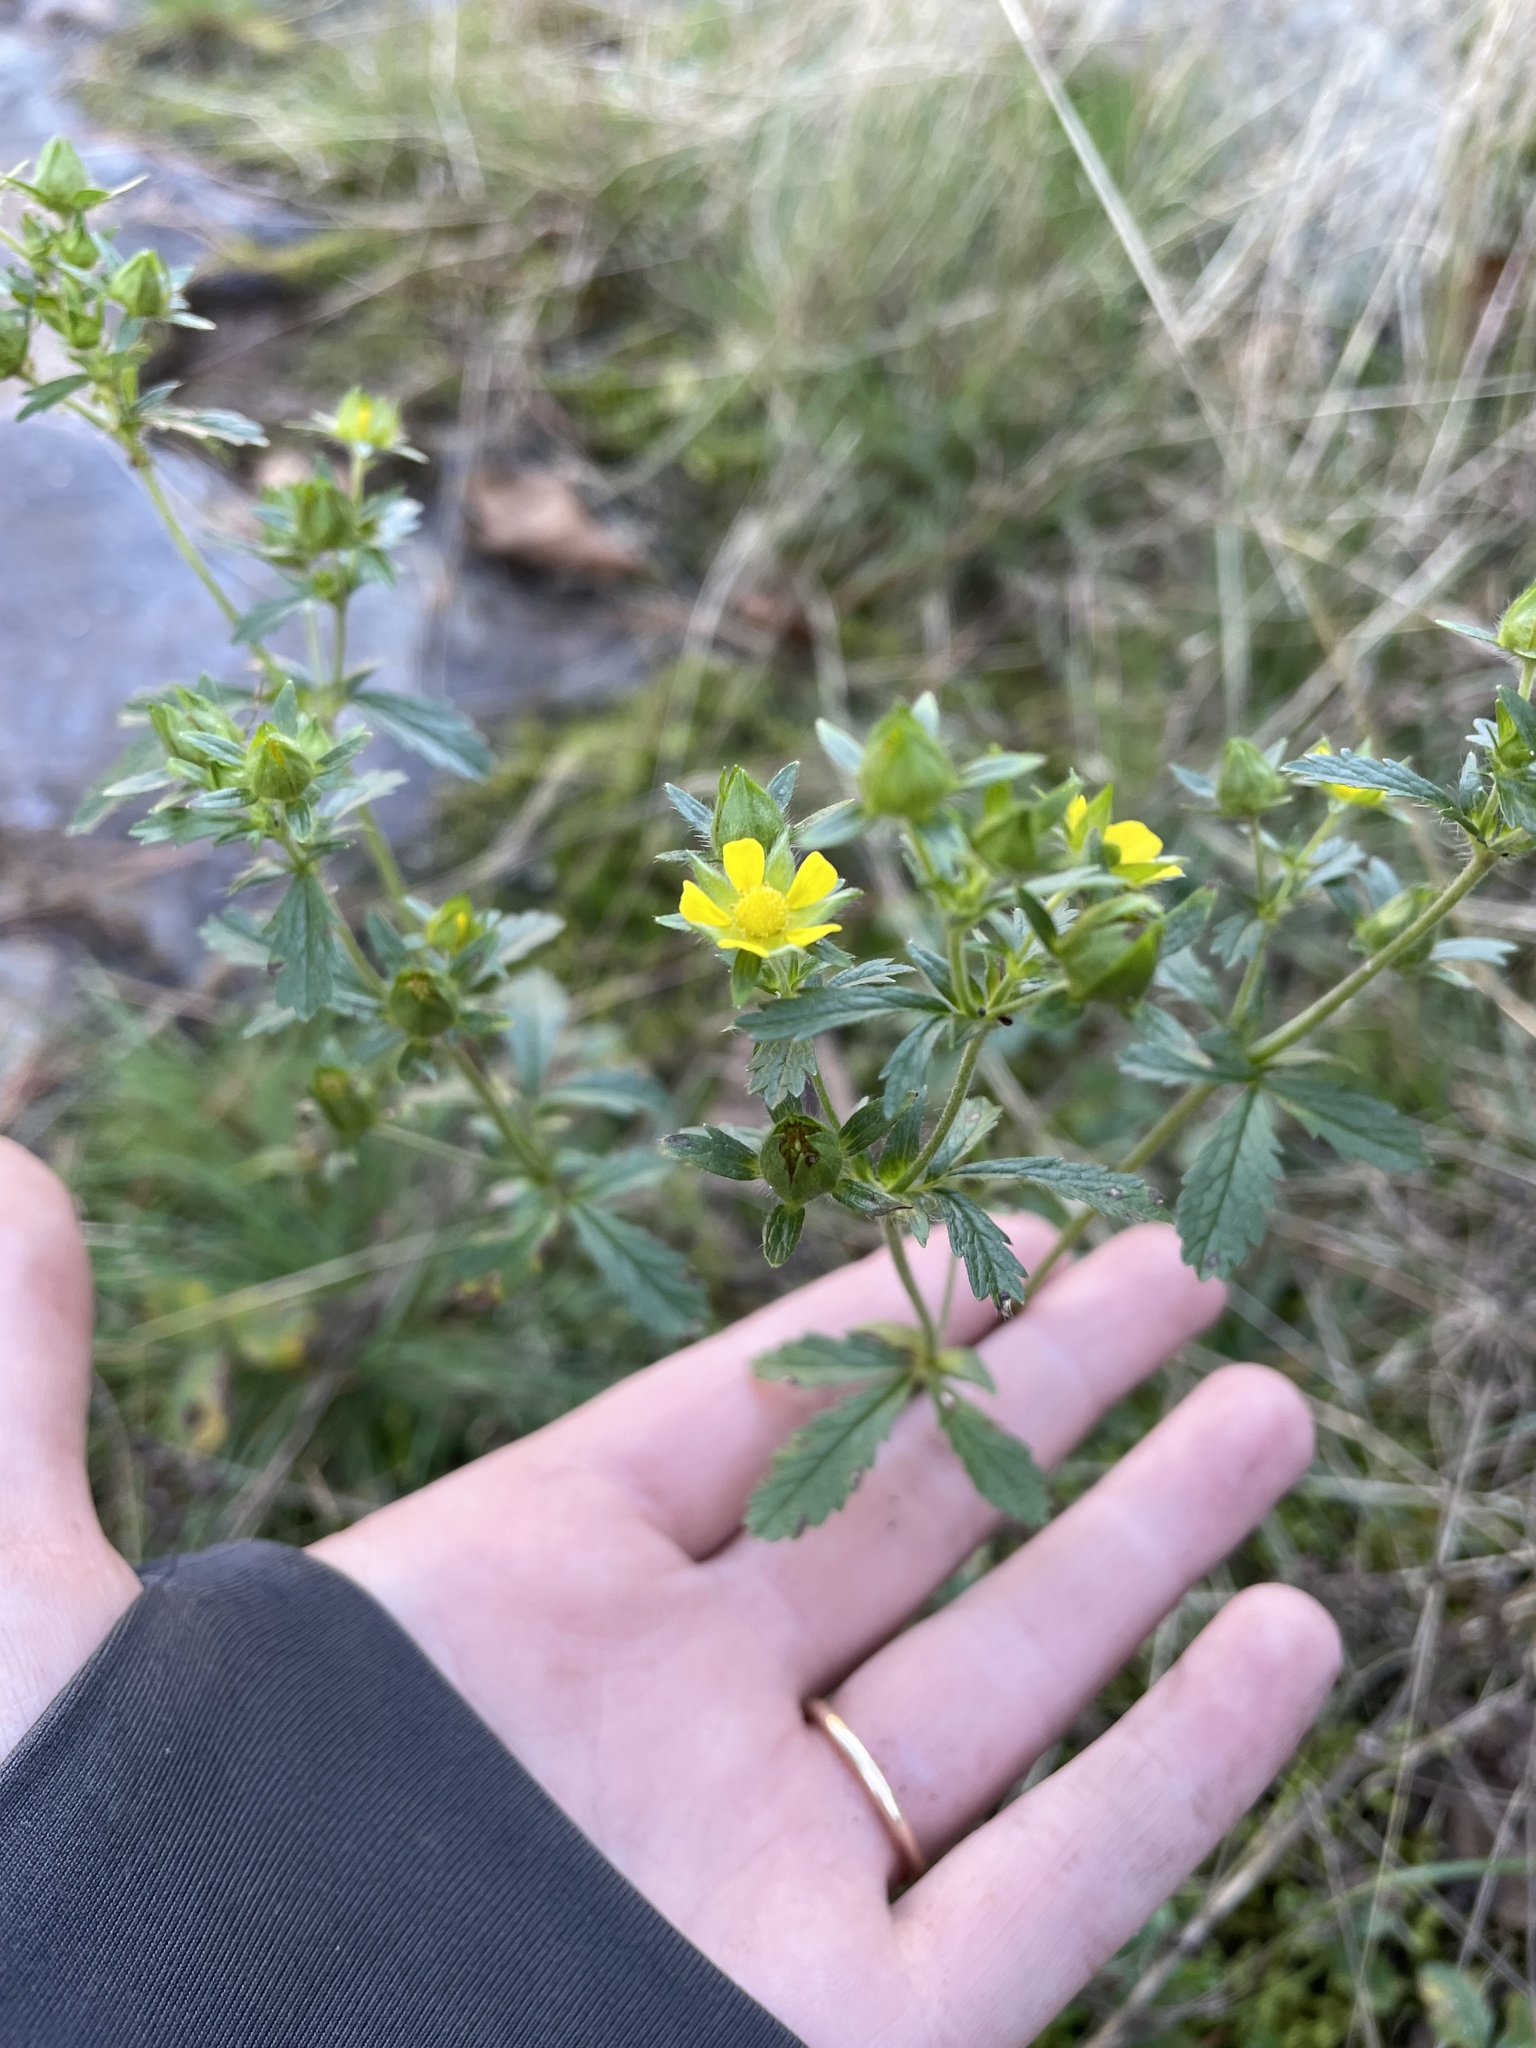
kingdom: Plantae
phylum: Tracheophyta
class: Magnoliopsida
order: Rosales
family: Rosaceae
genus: Potentilla
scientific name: Potentilla norvegica
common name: Ternate-leaved cinquefoil
